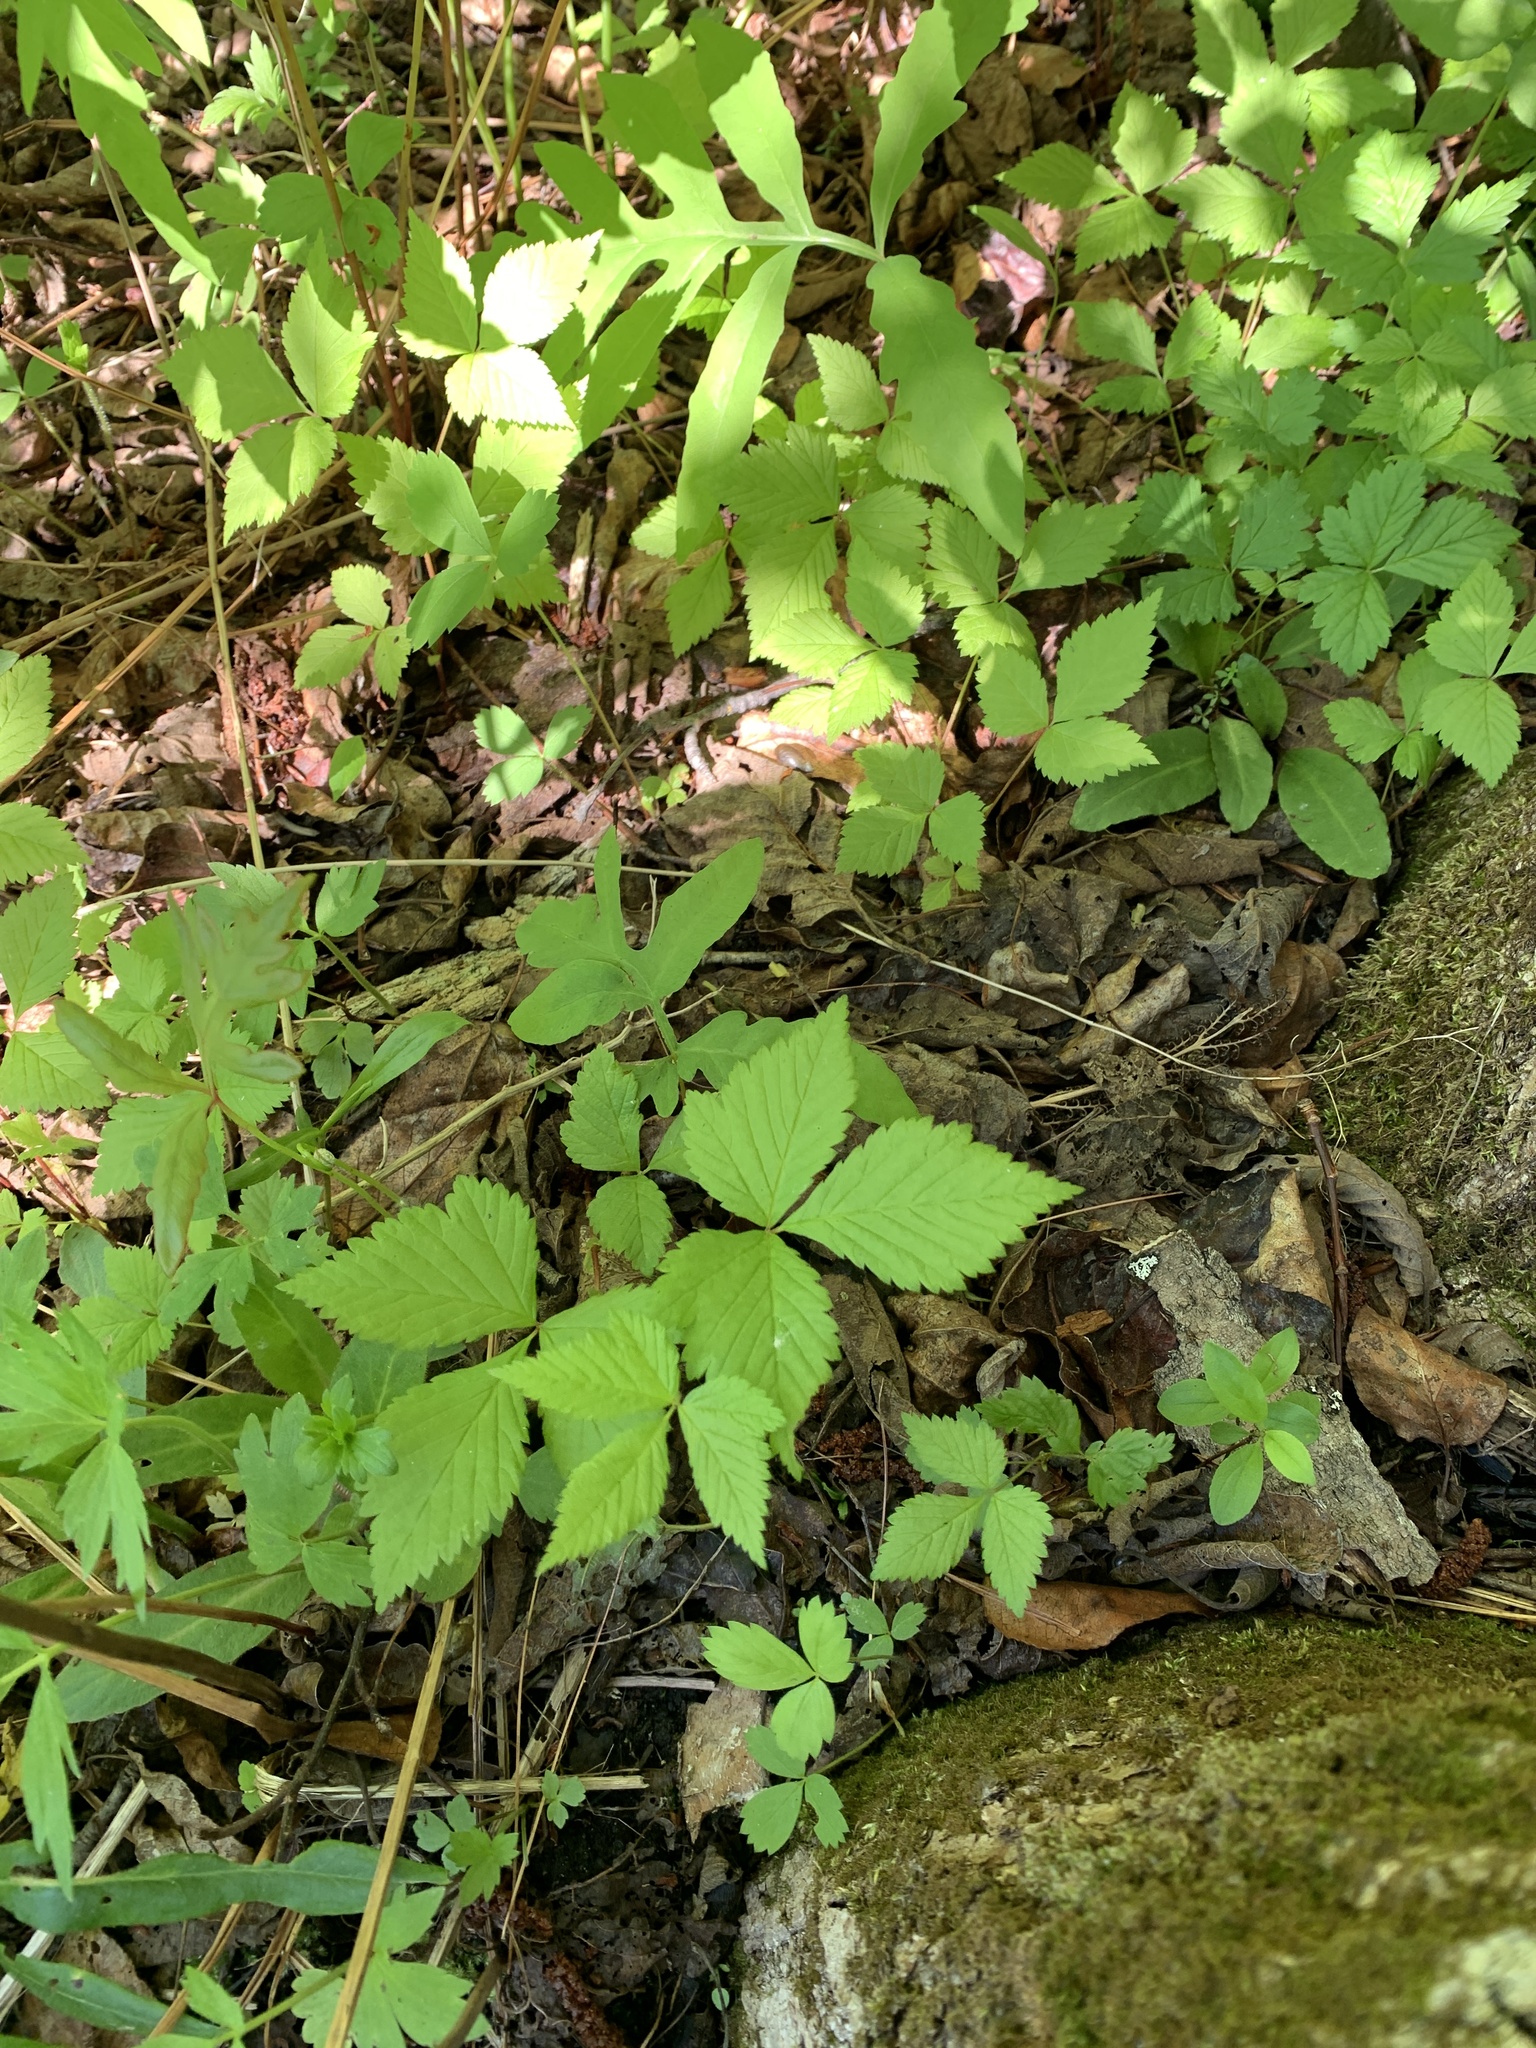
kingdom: Plantae
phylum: Tracheophyta
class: Magnoliopsida
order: Rosales
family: Rosaceae
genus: Rubus
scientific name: Rubus pubescens
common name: Dwarf raspberry
